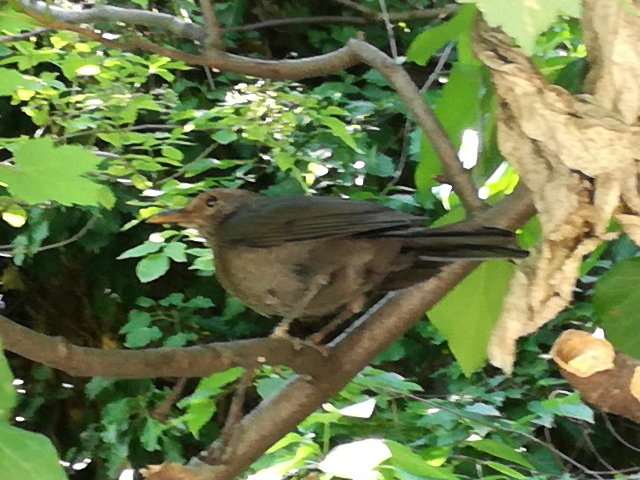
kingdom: Animalia
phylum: Chordata
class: Aves
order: Passeriformes
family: Turdidae
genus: Turdus
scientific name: Turdus merula
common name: Common blackbird
